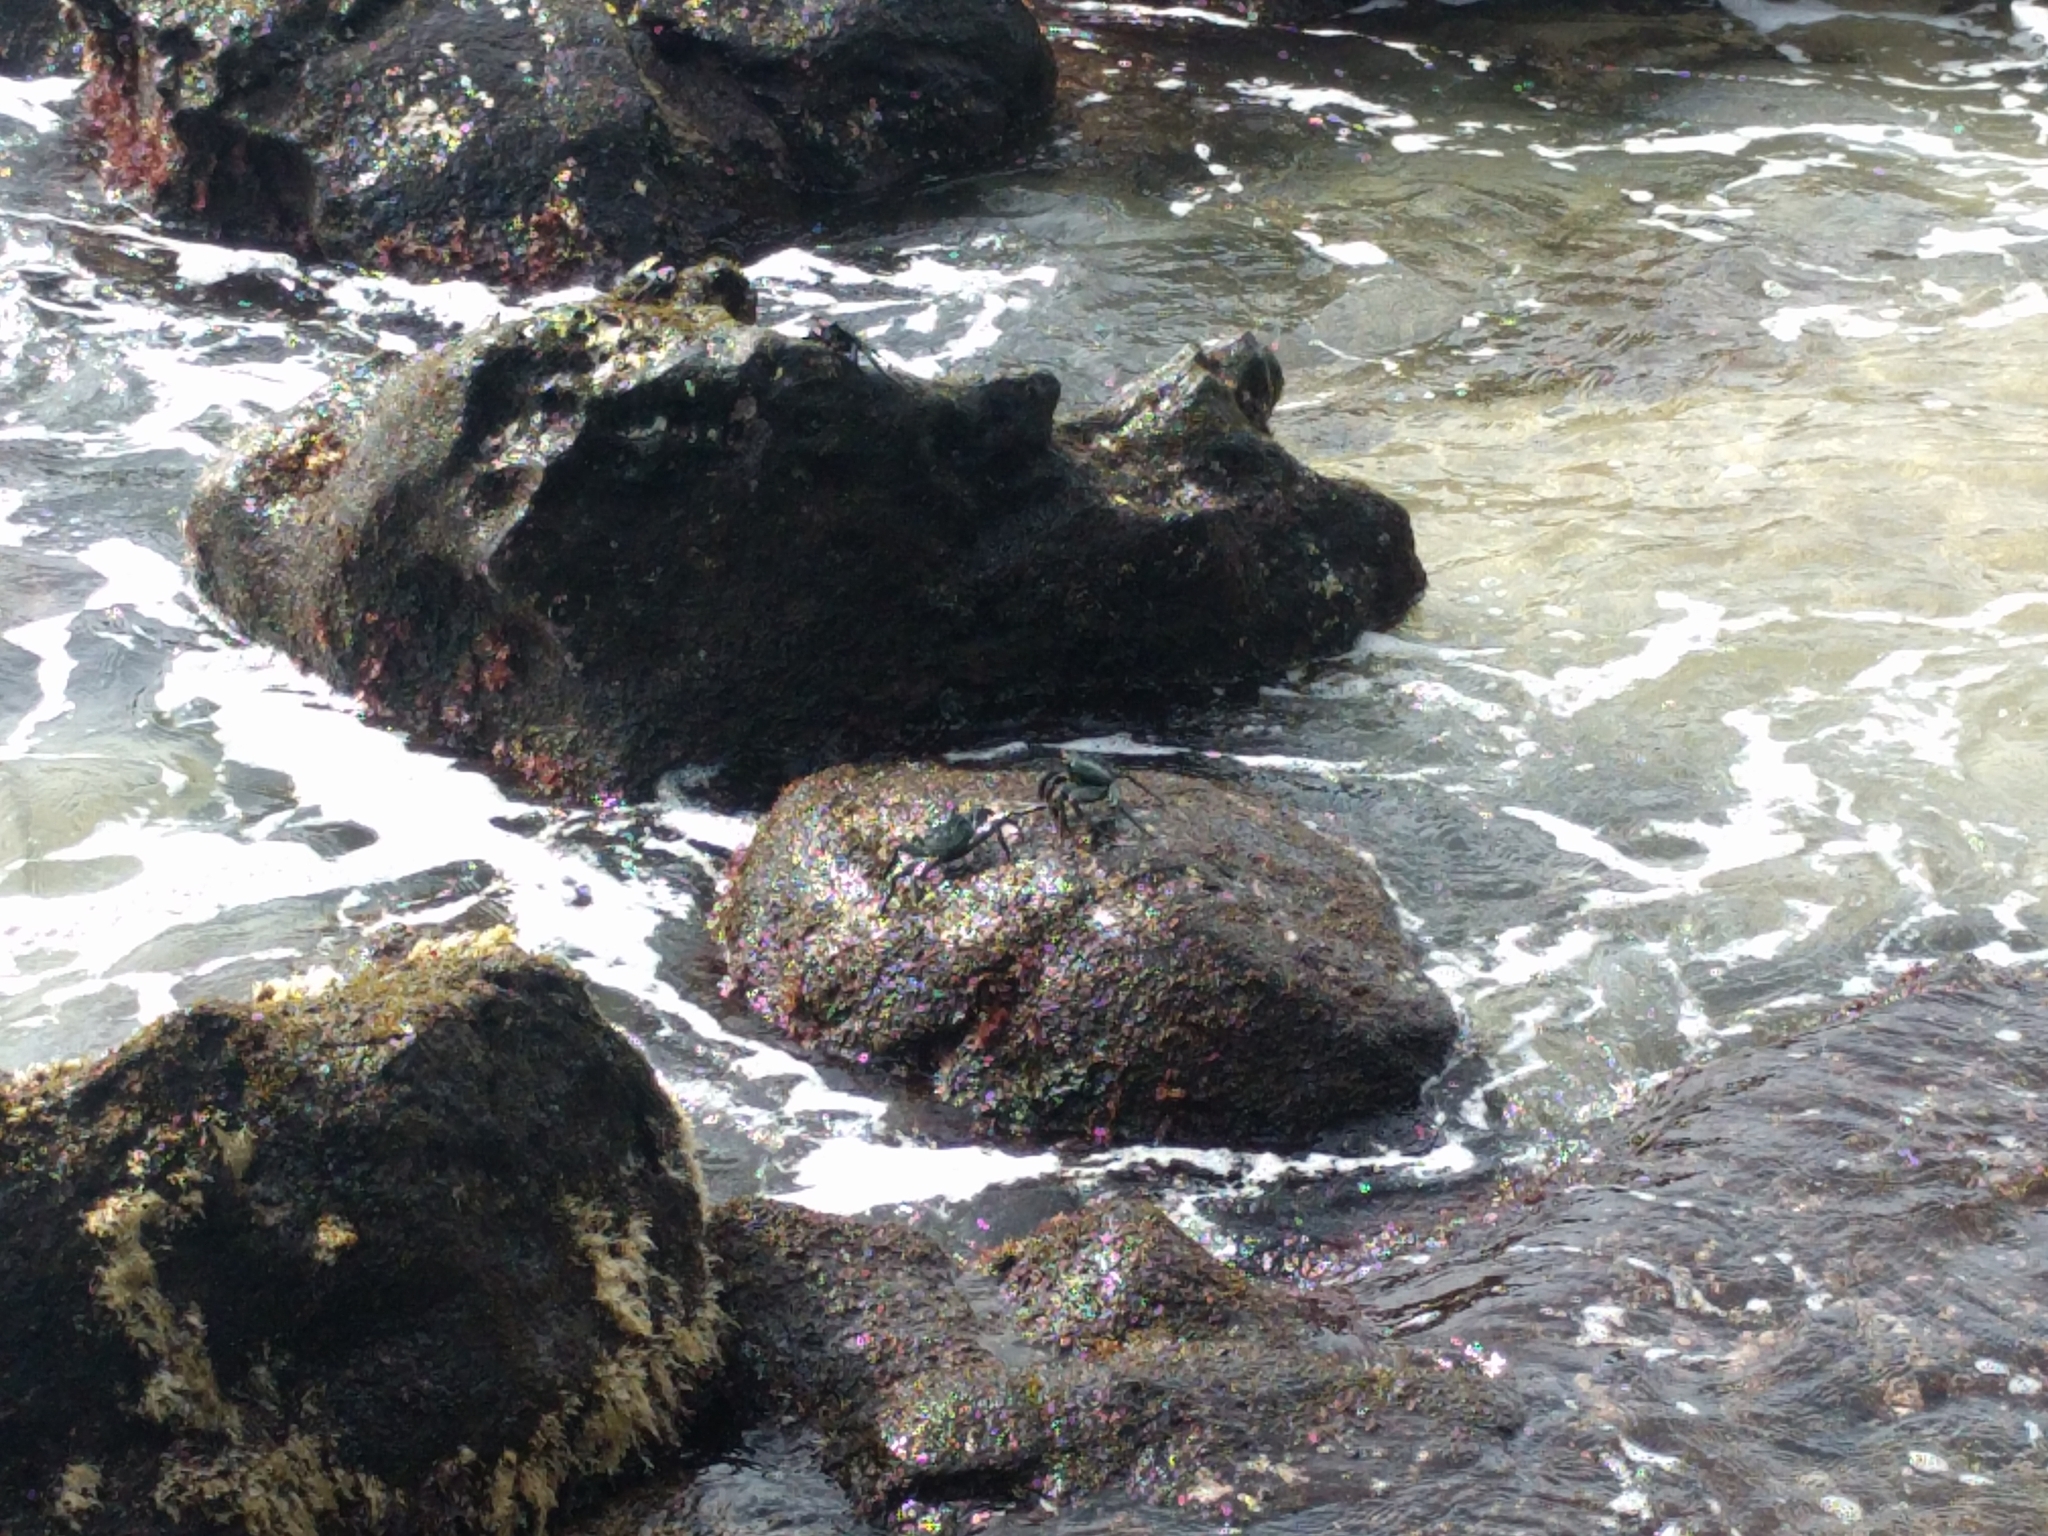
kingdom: Animalia
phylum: Arthropoda
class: Malacostraca
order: Decapoda
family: Grapsidae
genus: Grapsus
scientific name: Grapsus tenuicrustatus
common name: Natal lightfoot crab
